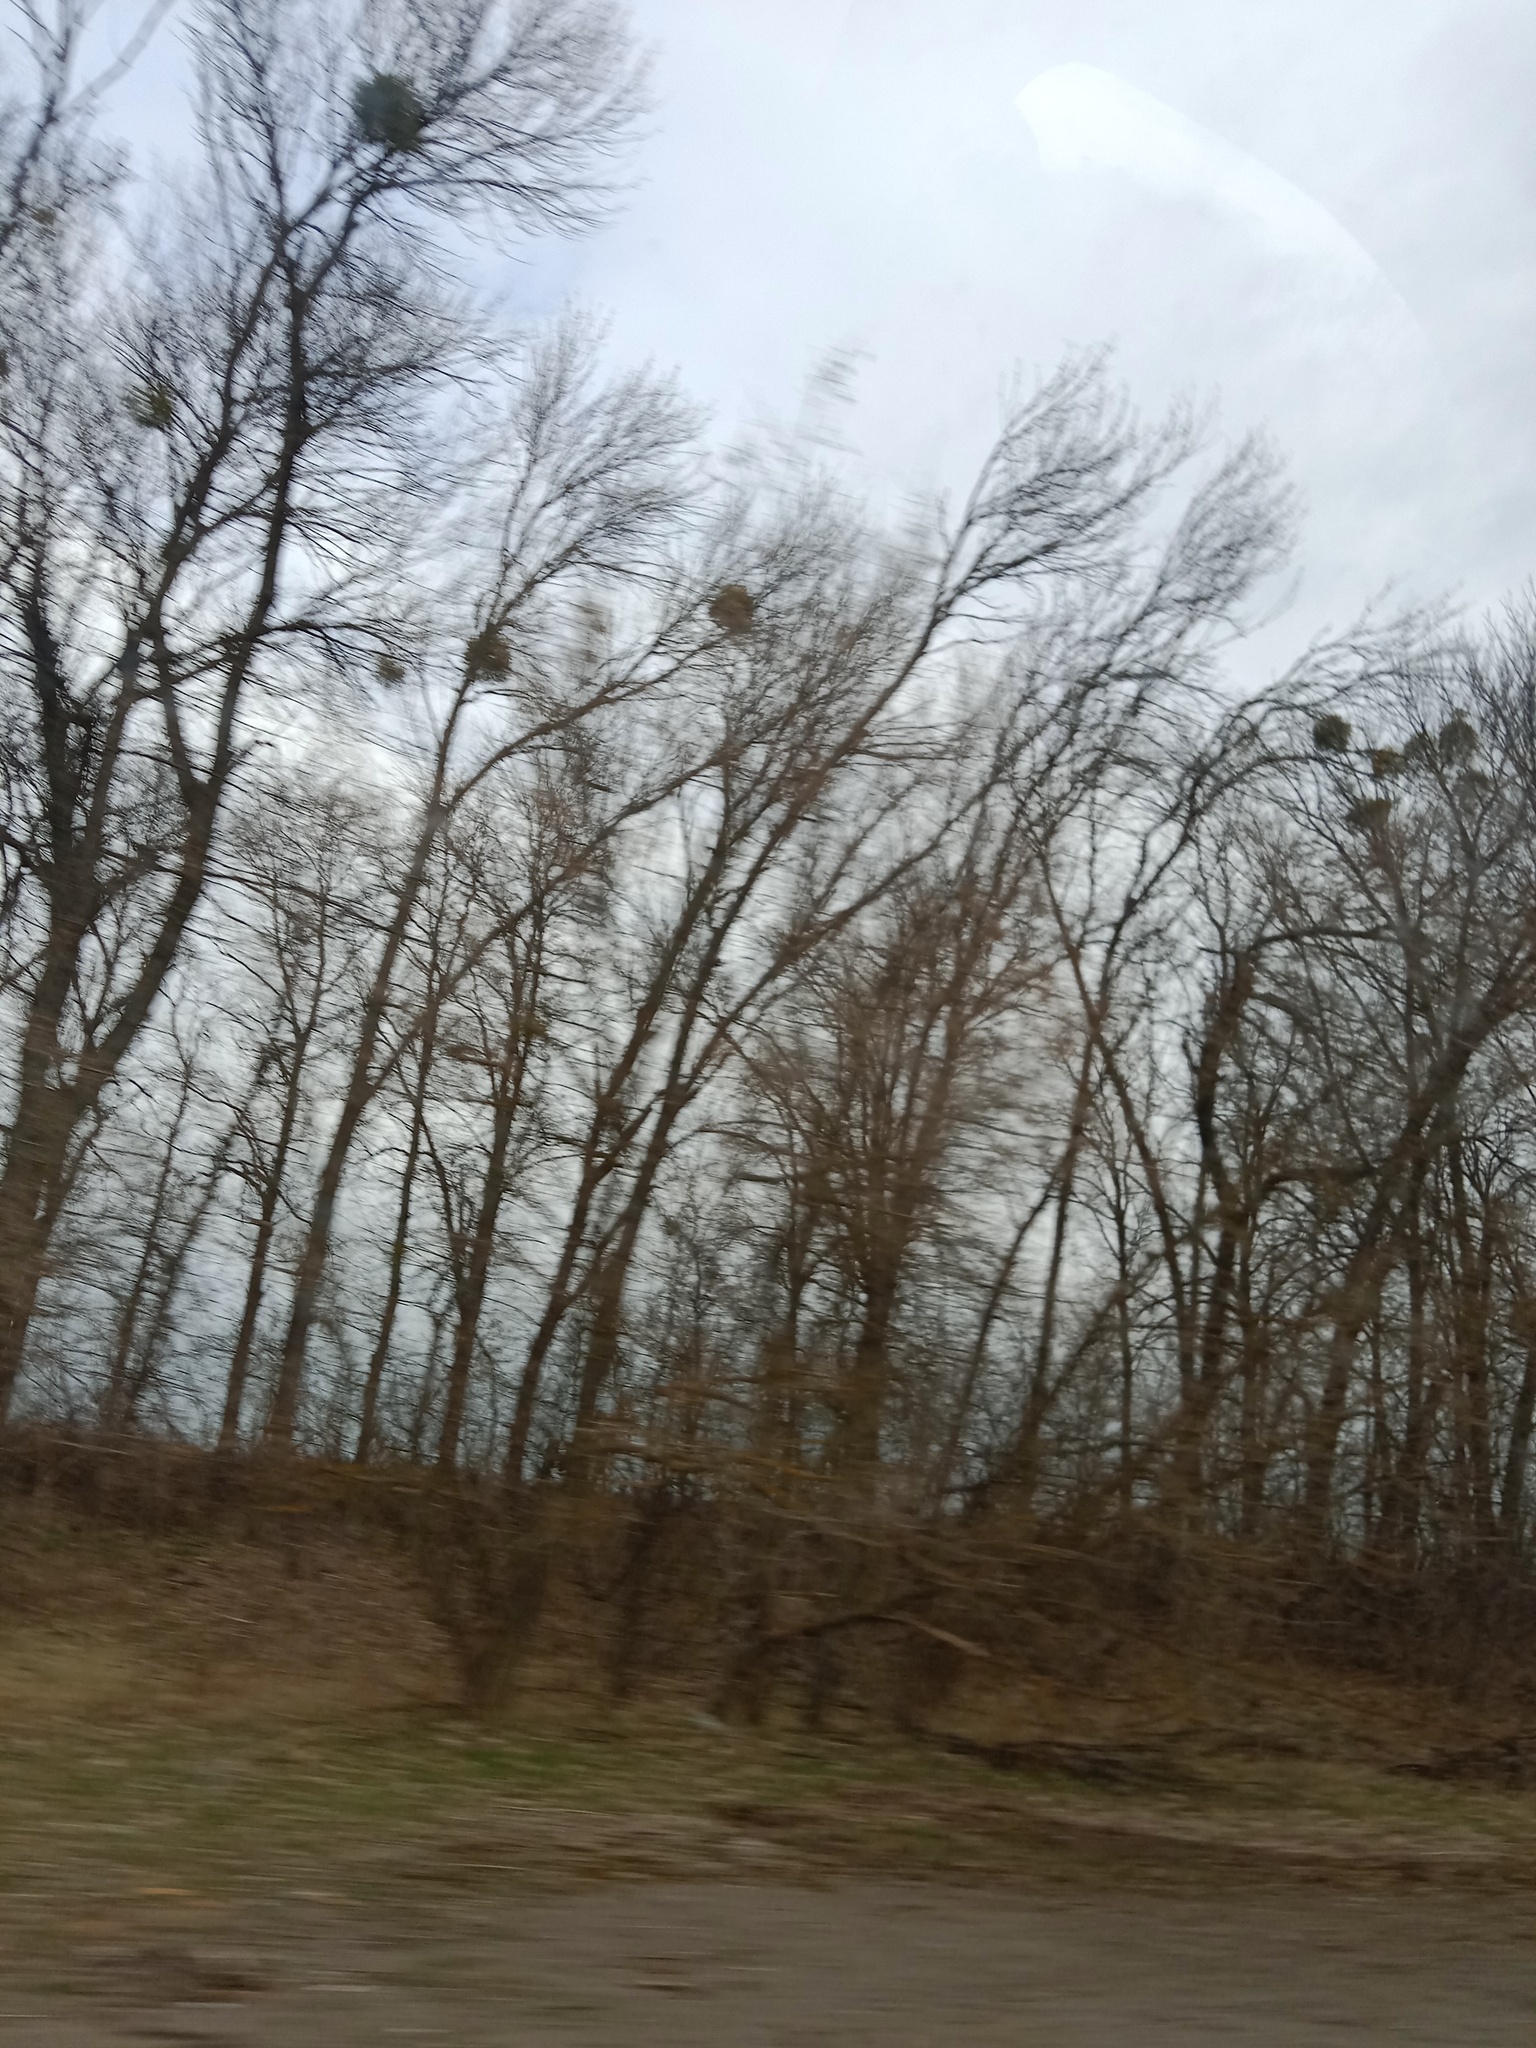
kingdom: Plantae
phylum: Tracheophyta
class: Magnoliopsida
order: Santalales
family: Viscaceae
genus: Viscum
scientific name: Viscum album
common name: Mistletoe
